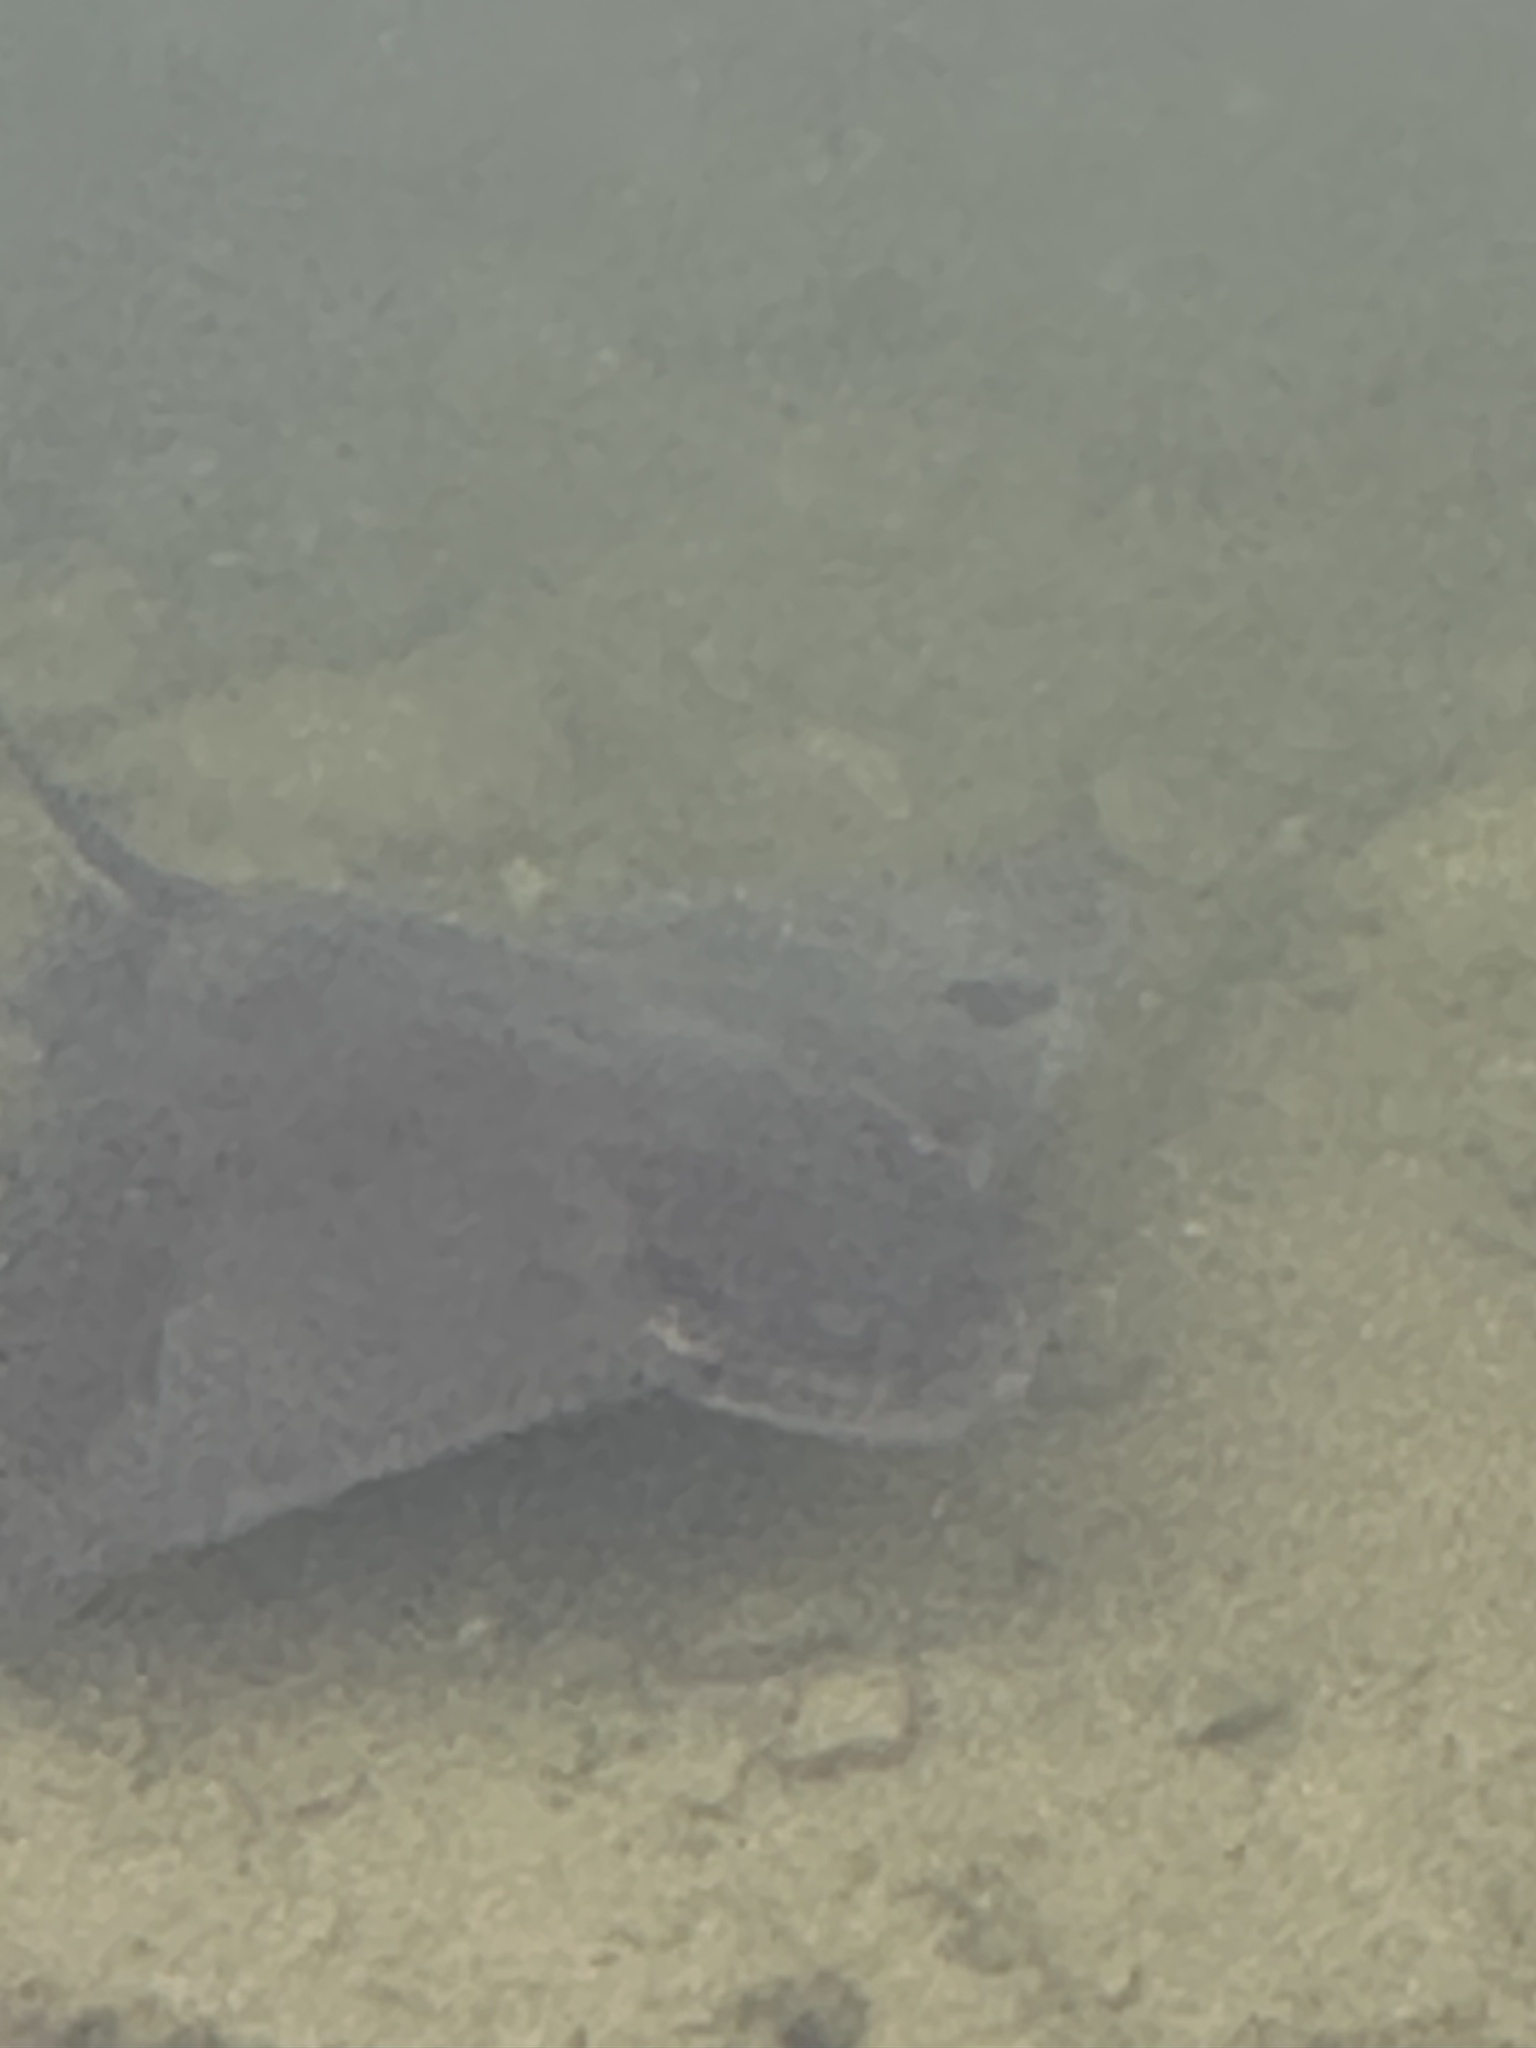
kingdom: Animalia
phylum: Chordata
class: Elasmobranchii
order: Myliobatiformes
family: Myliobatidae
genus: Myliobatis
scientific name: Myliobatis californica
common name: Bat ray
